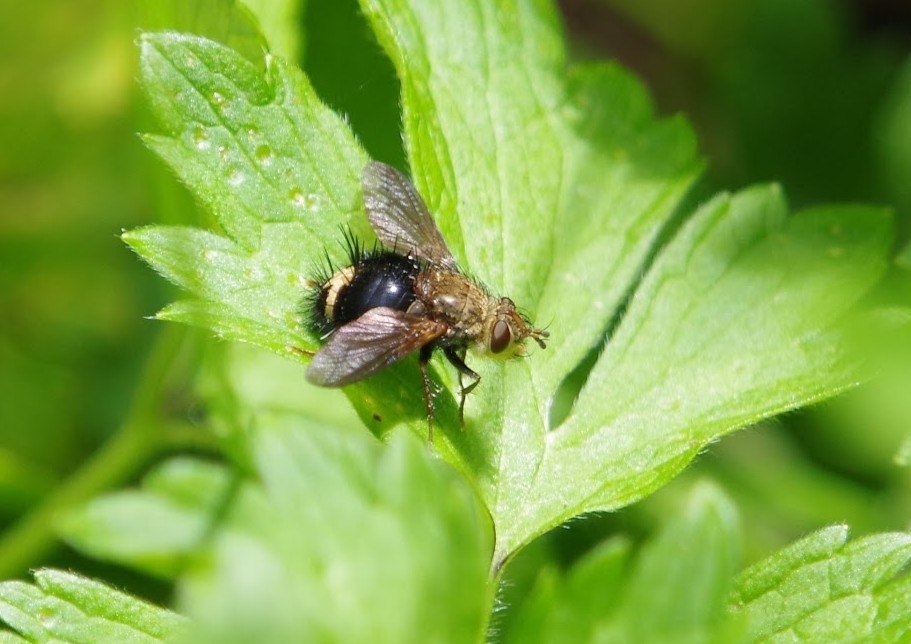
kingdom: Animalia
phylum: Arthropoda
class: Insecta
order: Diptera
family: Tachinidae
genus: Epalpus
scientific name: Epalpus signifer
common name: Early tachinid fly
